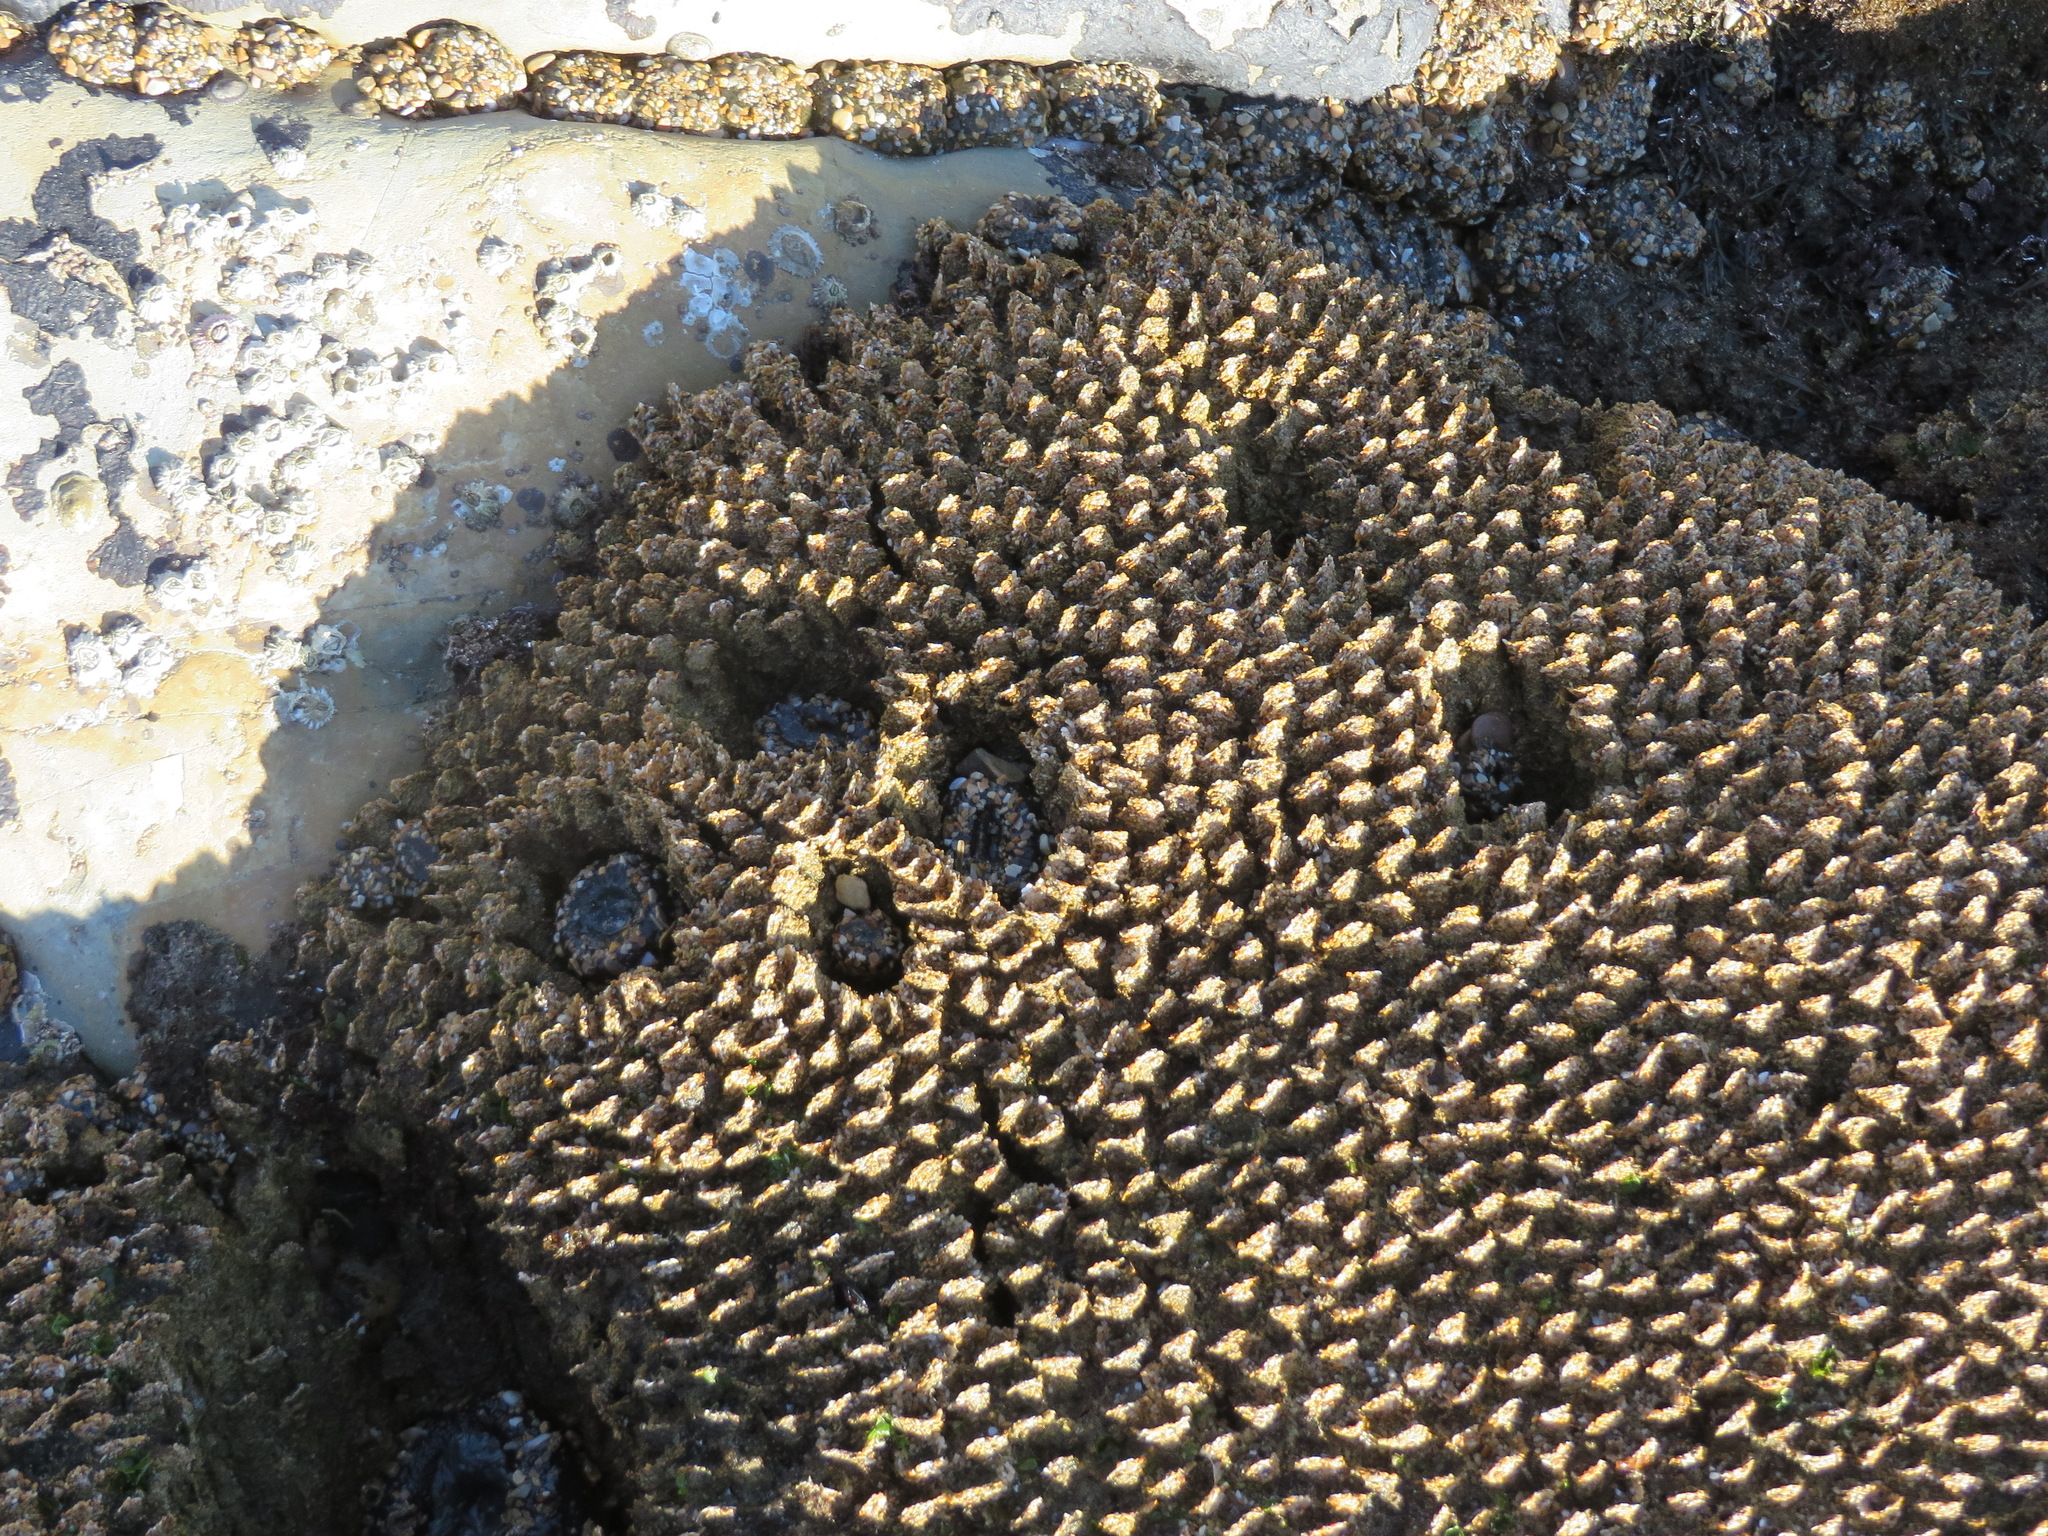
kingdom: Animalia
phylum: Cnidaria
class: Anthozoa
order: Actiniaria
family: Actiniidae
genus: Anthopleura
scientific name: Anthopleura elegantissima
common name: Clonal anemone
